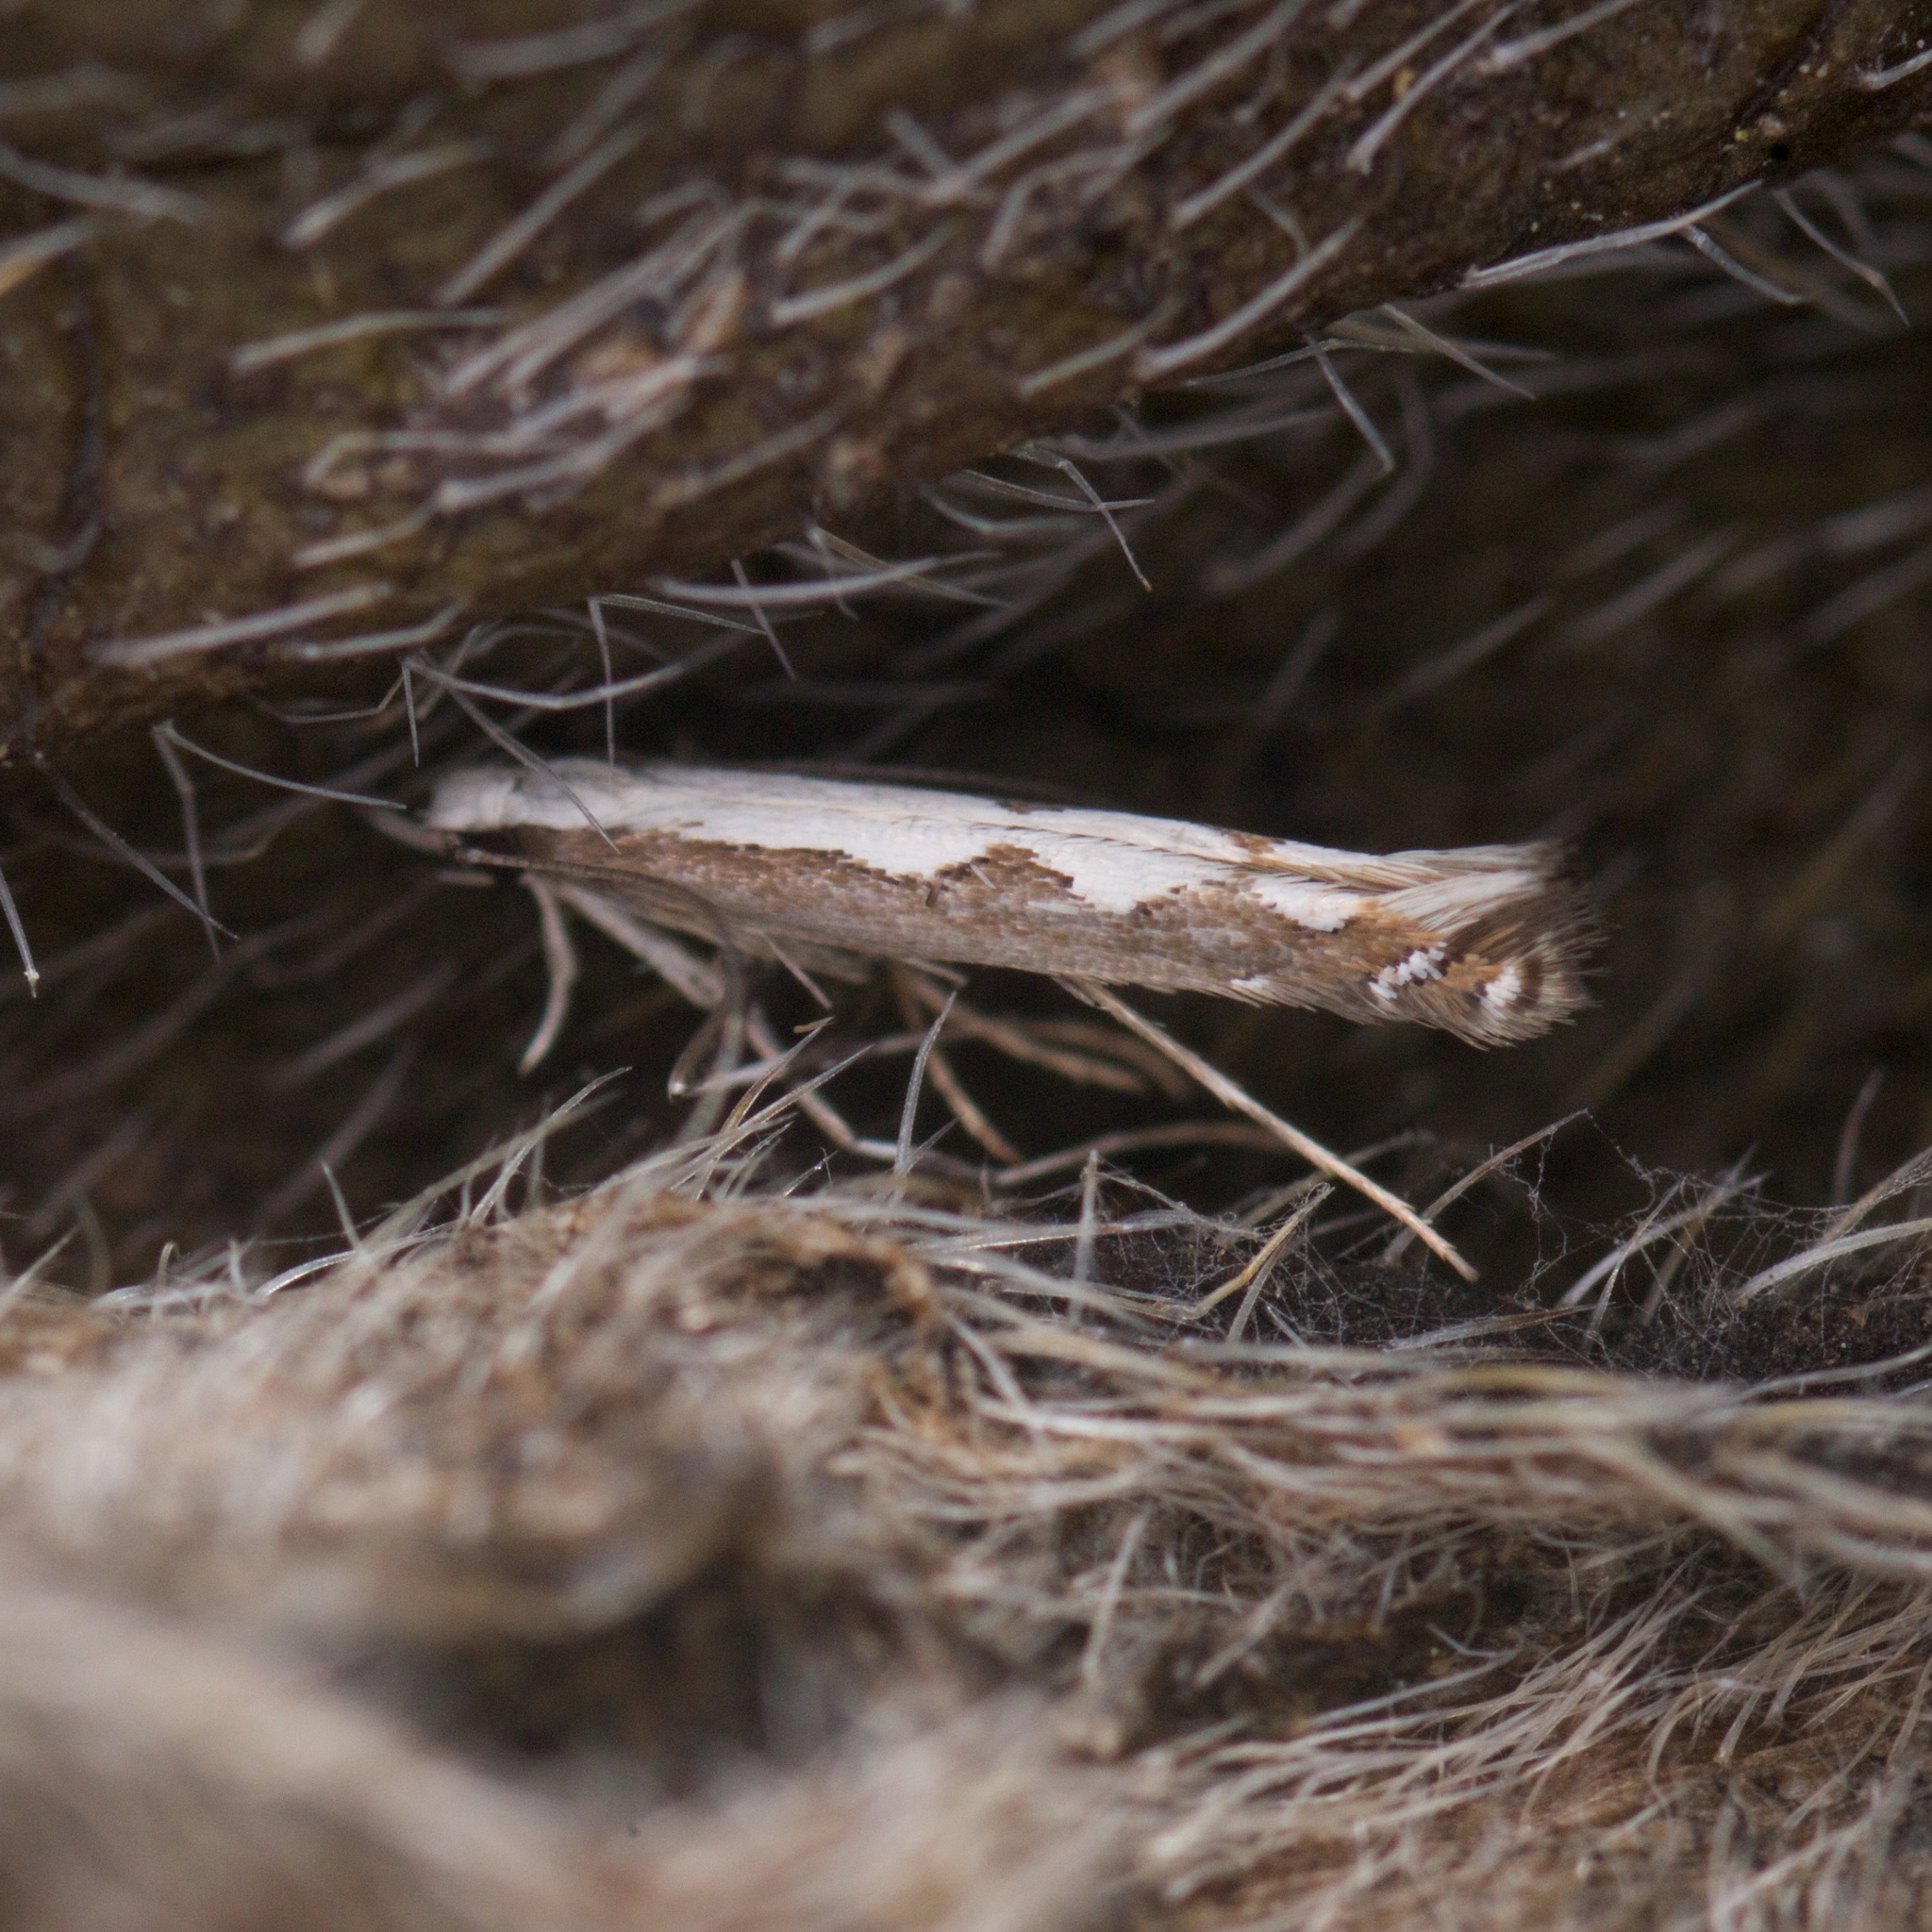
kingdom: Animalia
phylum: Arthropoda
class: Insecta
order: Lepidoptera
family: Gracillariidae
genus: Dialectica
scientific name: Dialectica scalariella
